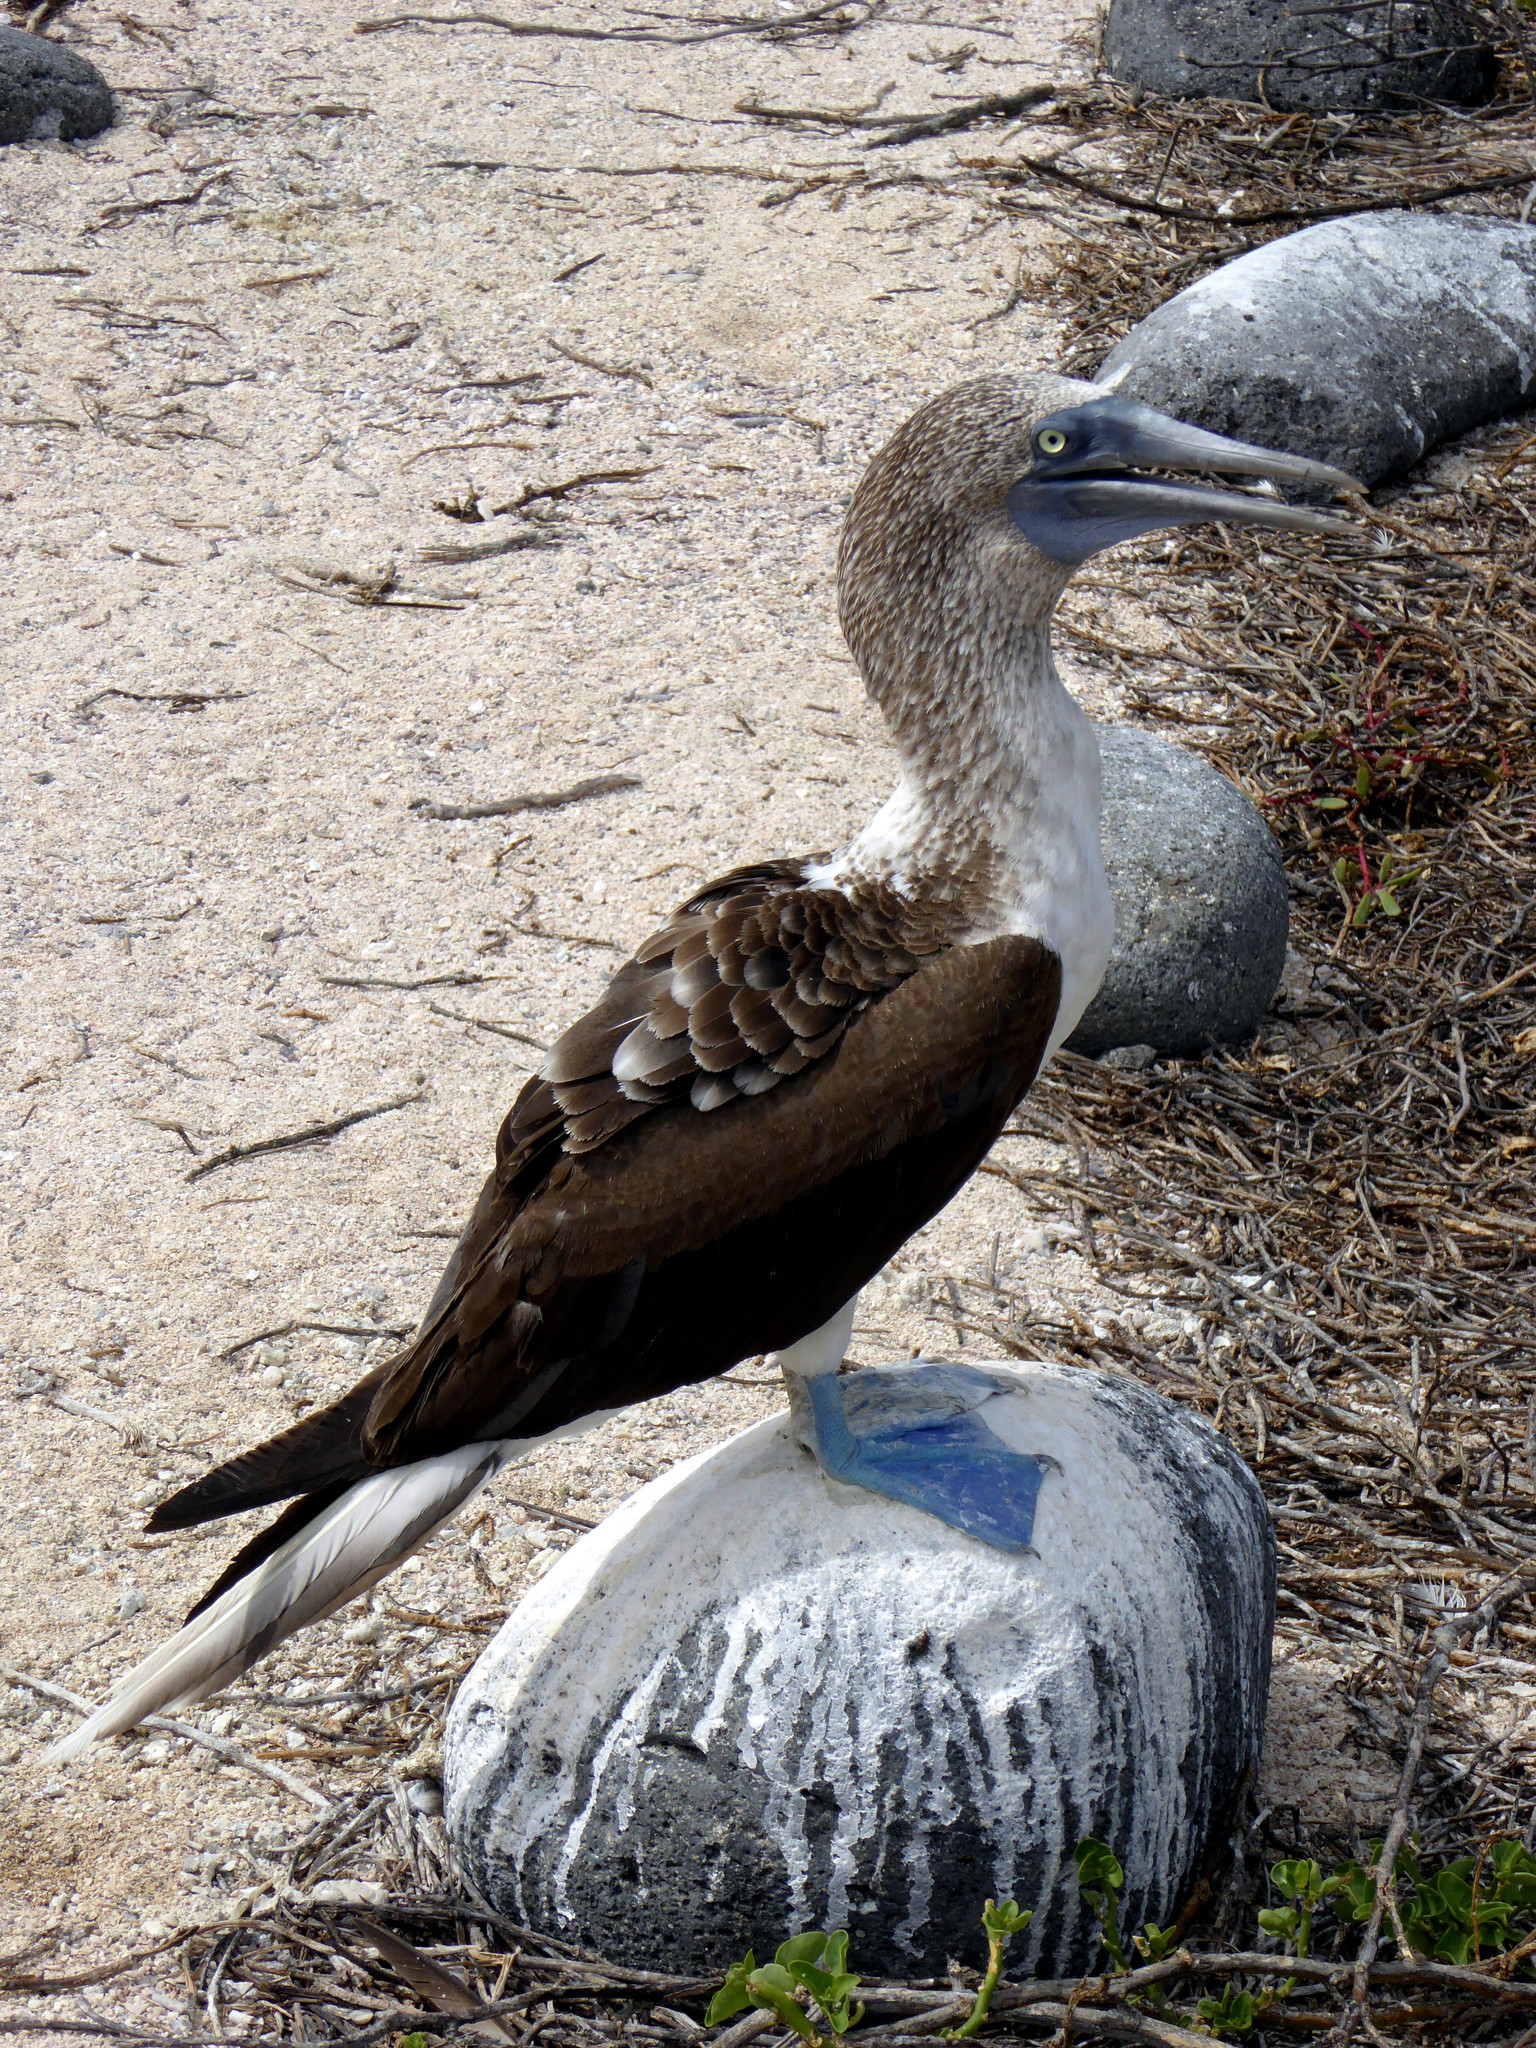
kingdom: Animalia
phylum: Chordata
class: Aves
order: Suliformes
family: Sulidae
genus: Sula
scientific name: Sula nebouxii
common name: Blue-footed booby
